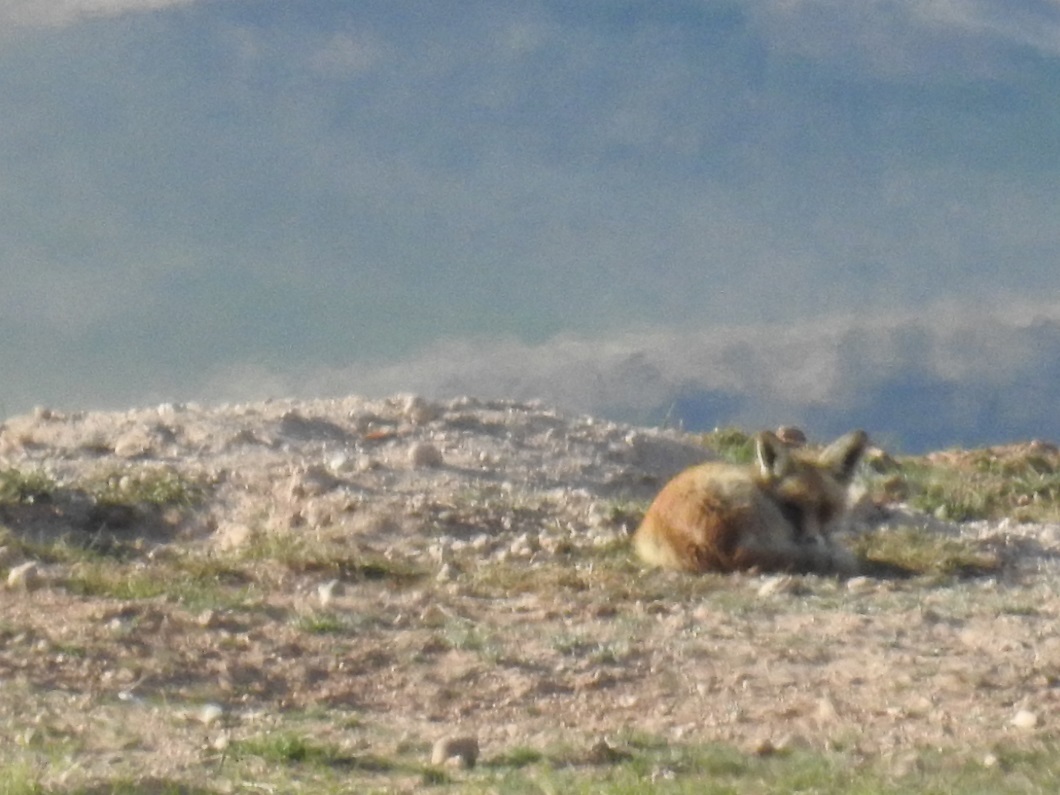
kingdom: Animalia
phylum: Chordata
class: Mammalia
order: Carnivora
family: Canidae
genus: Vulpes
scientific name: Vulpes vulpes
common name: Red fox
